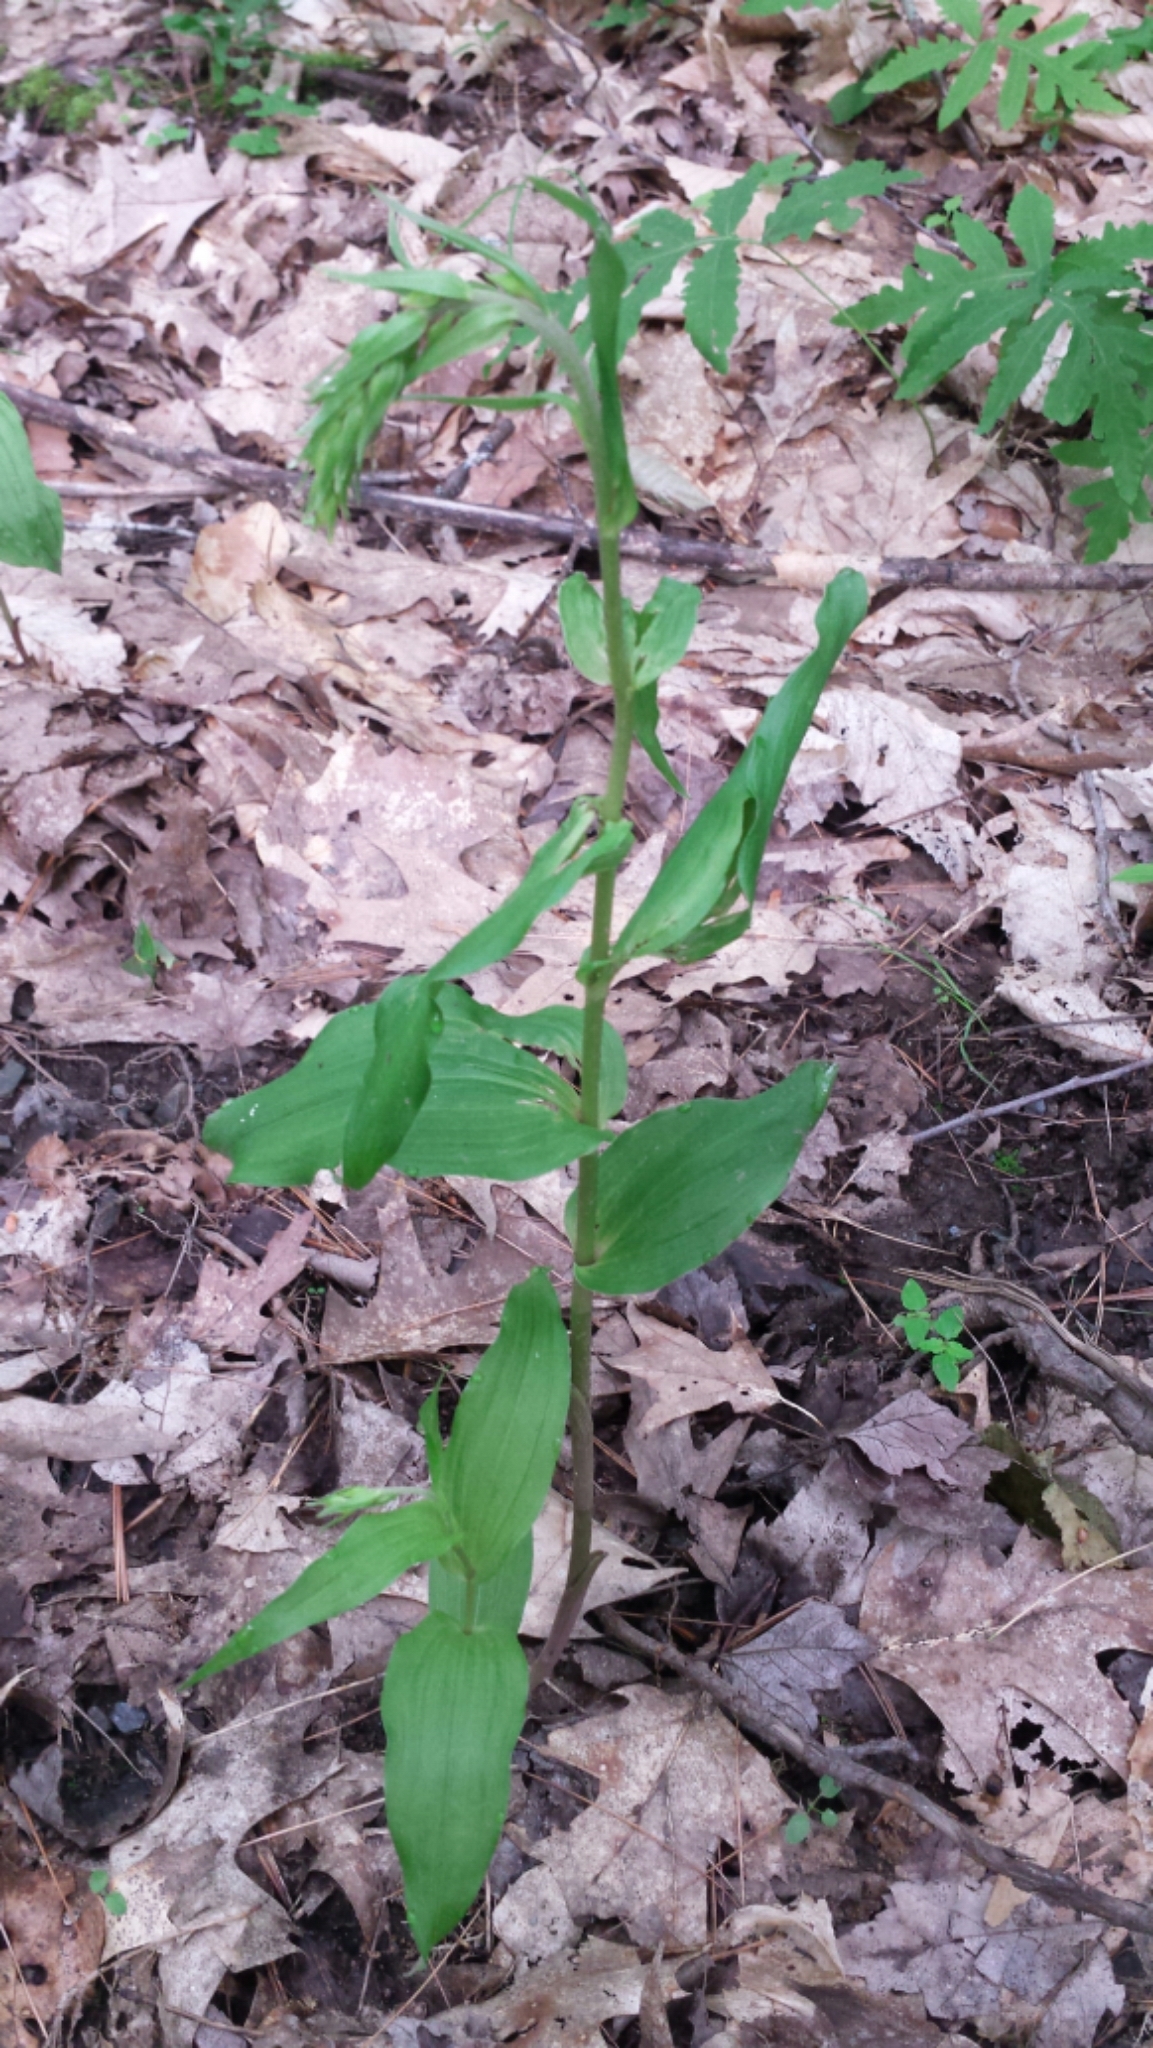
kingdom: Plantae
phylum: Tracheophyta
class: Liliopsida
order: Asparagales
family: Orchidaceae
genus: Epipactis
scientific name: Epipactis helleborine
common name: Broad-leaved helleborine
